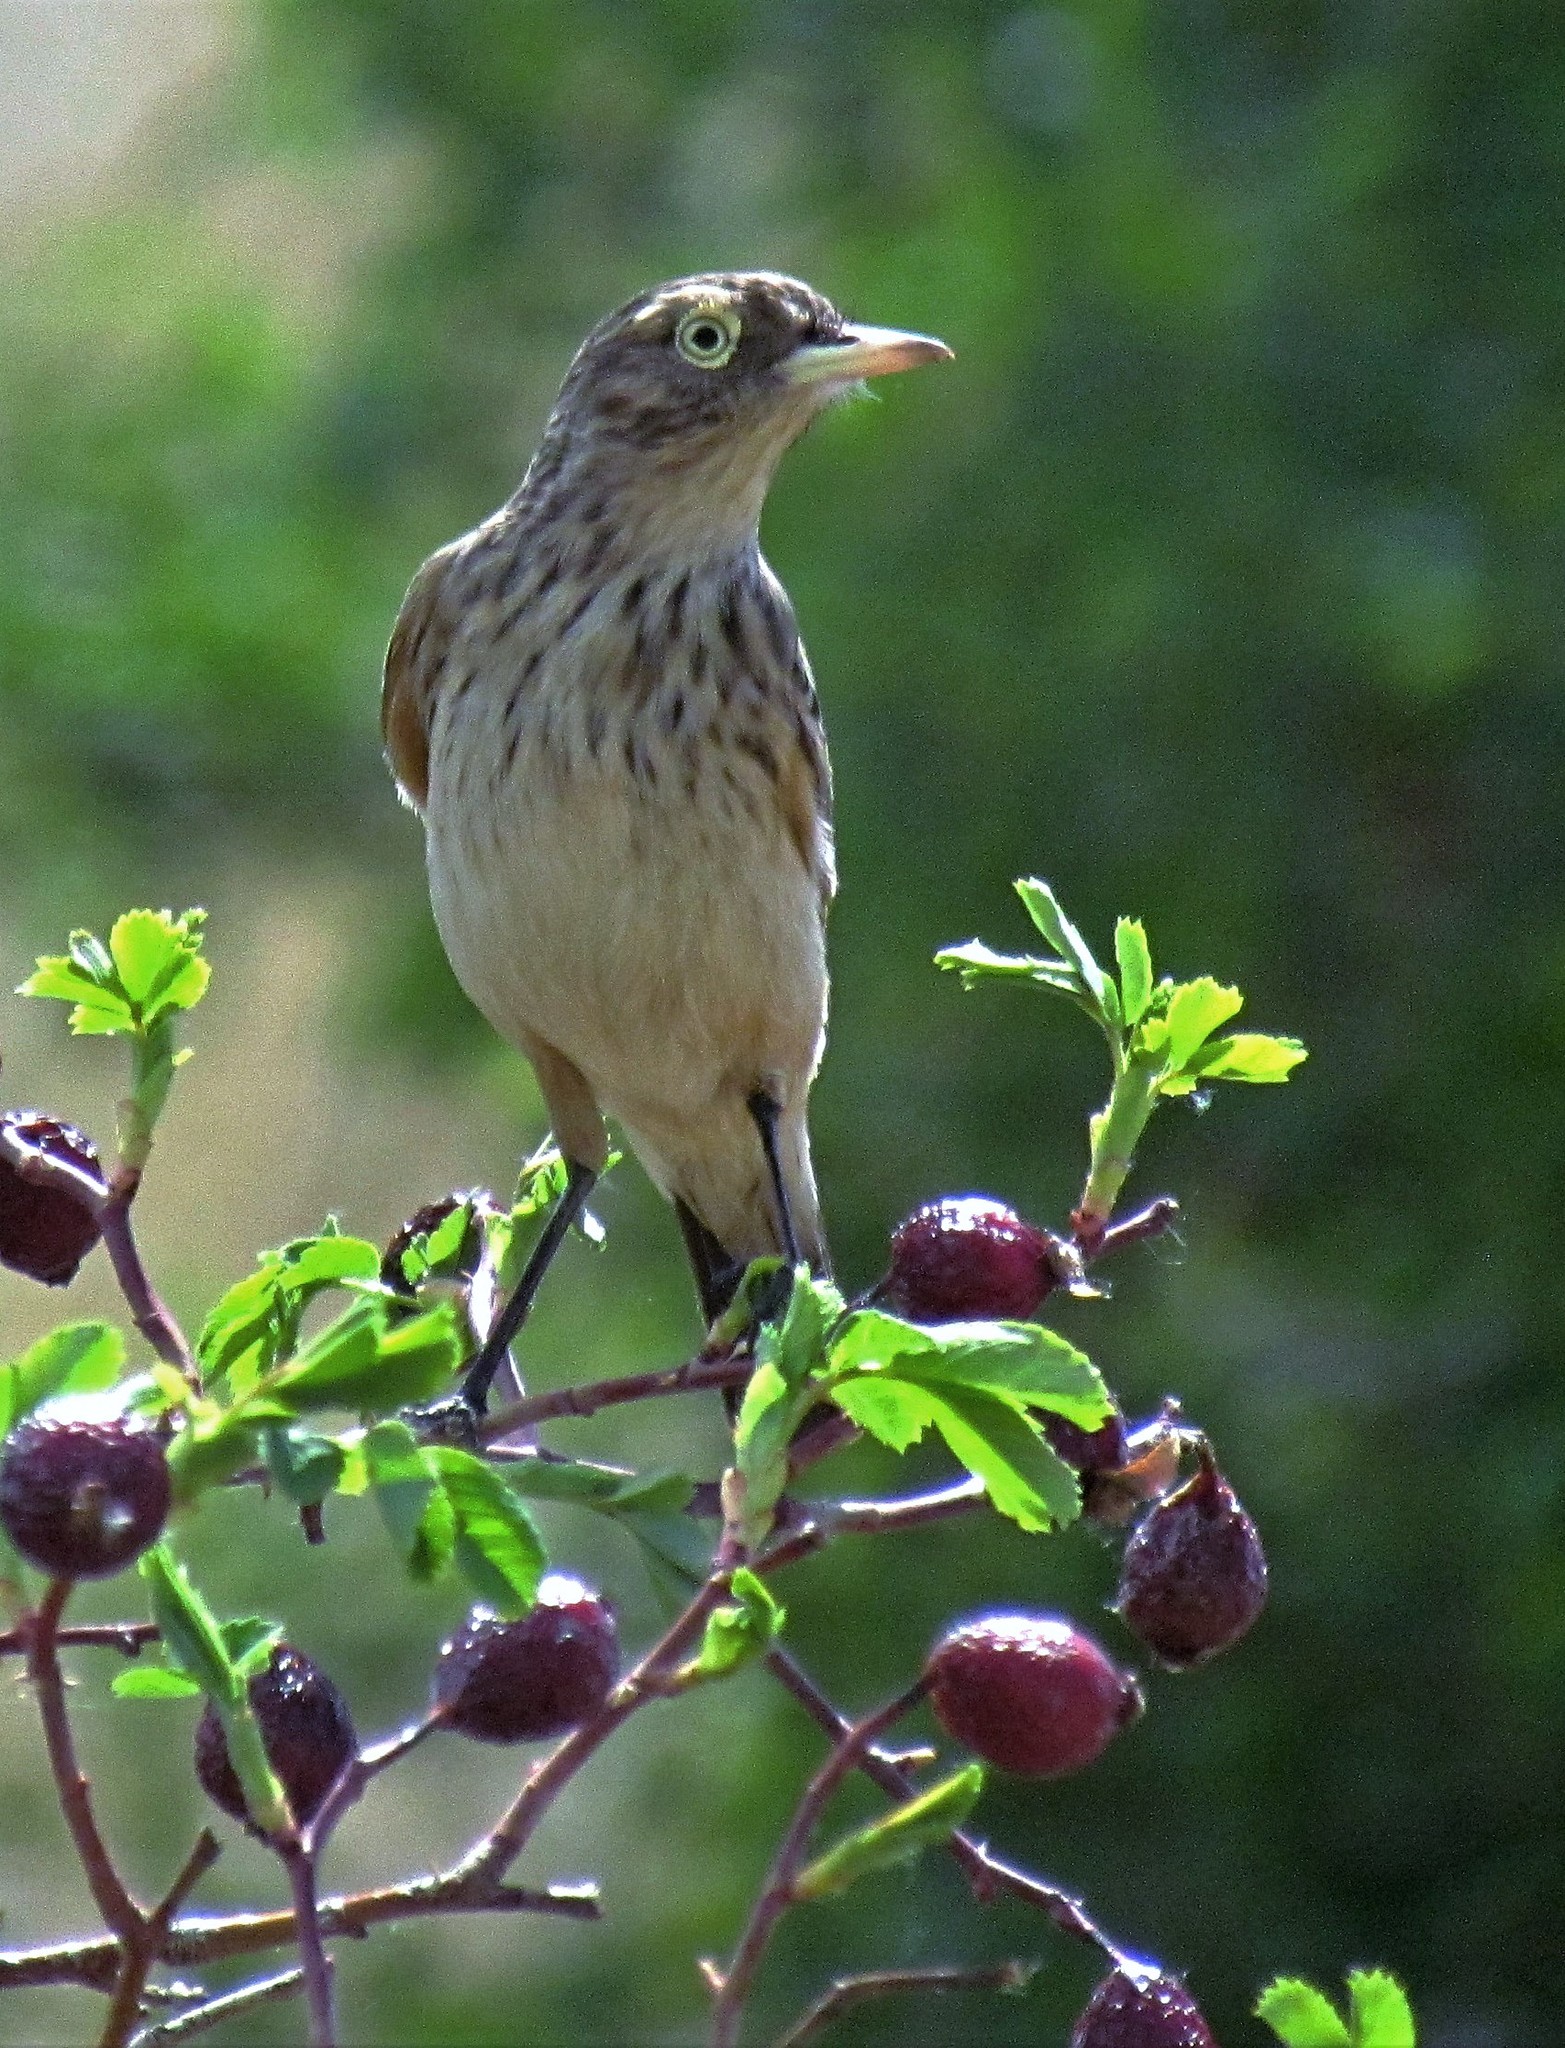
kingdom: Animalia
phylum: Chordata
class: Aves
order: Passeriformes
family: Tyrannidae
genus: Hymenops
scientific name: Hymenops perspicillatus
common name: Spectacled tyrant
